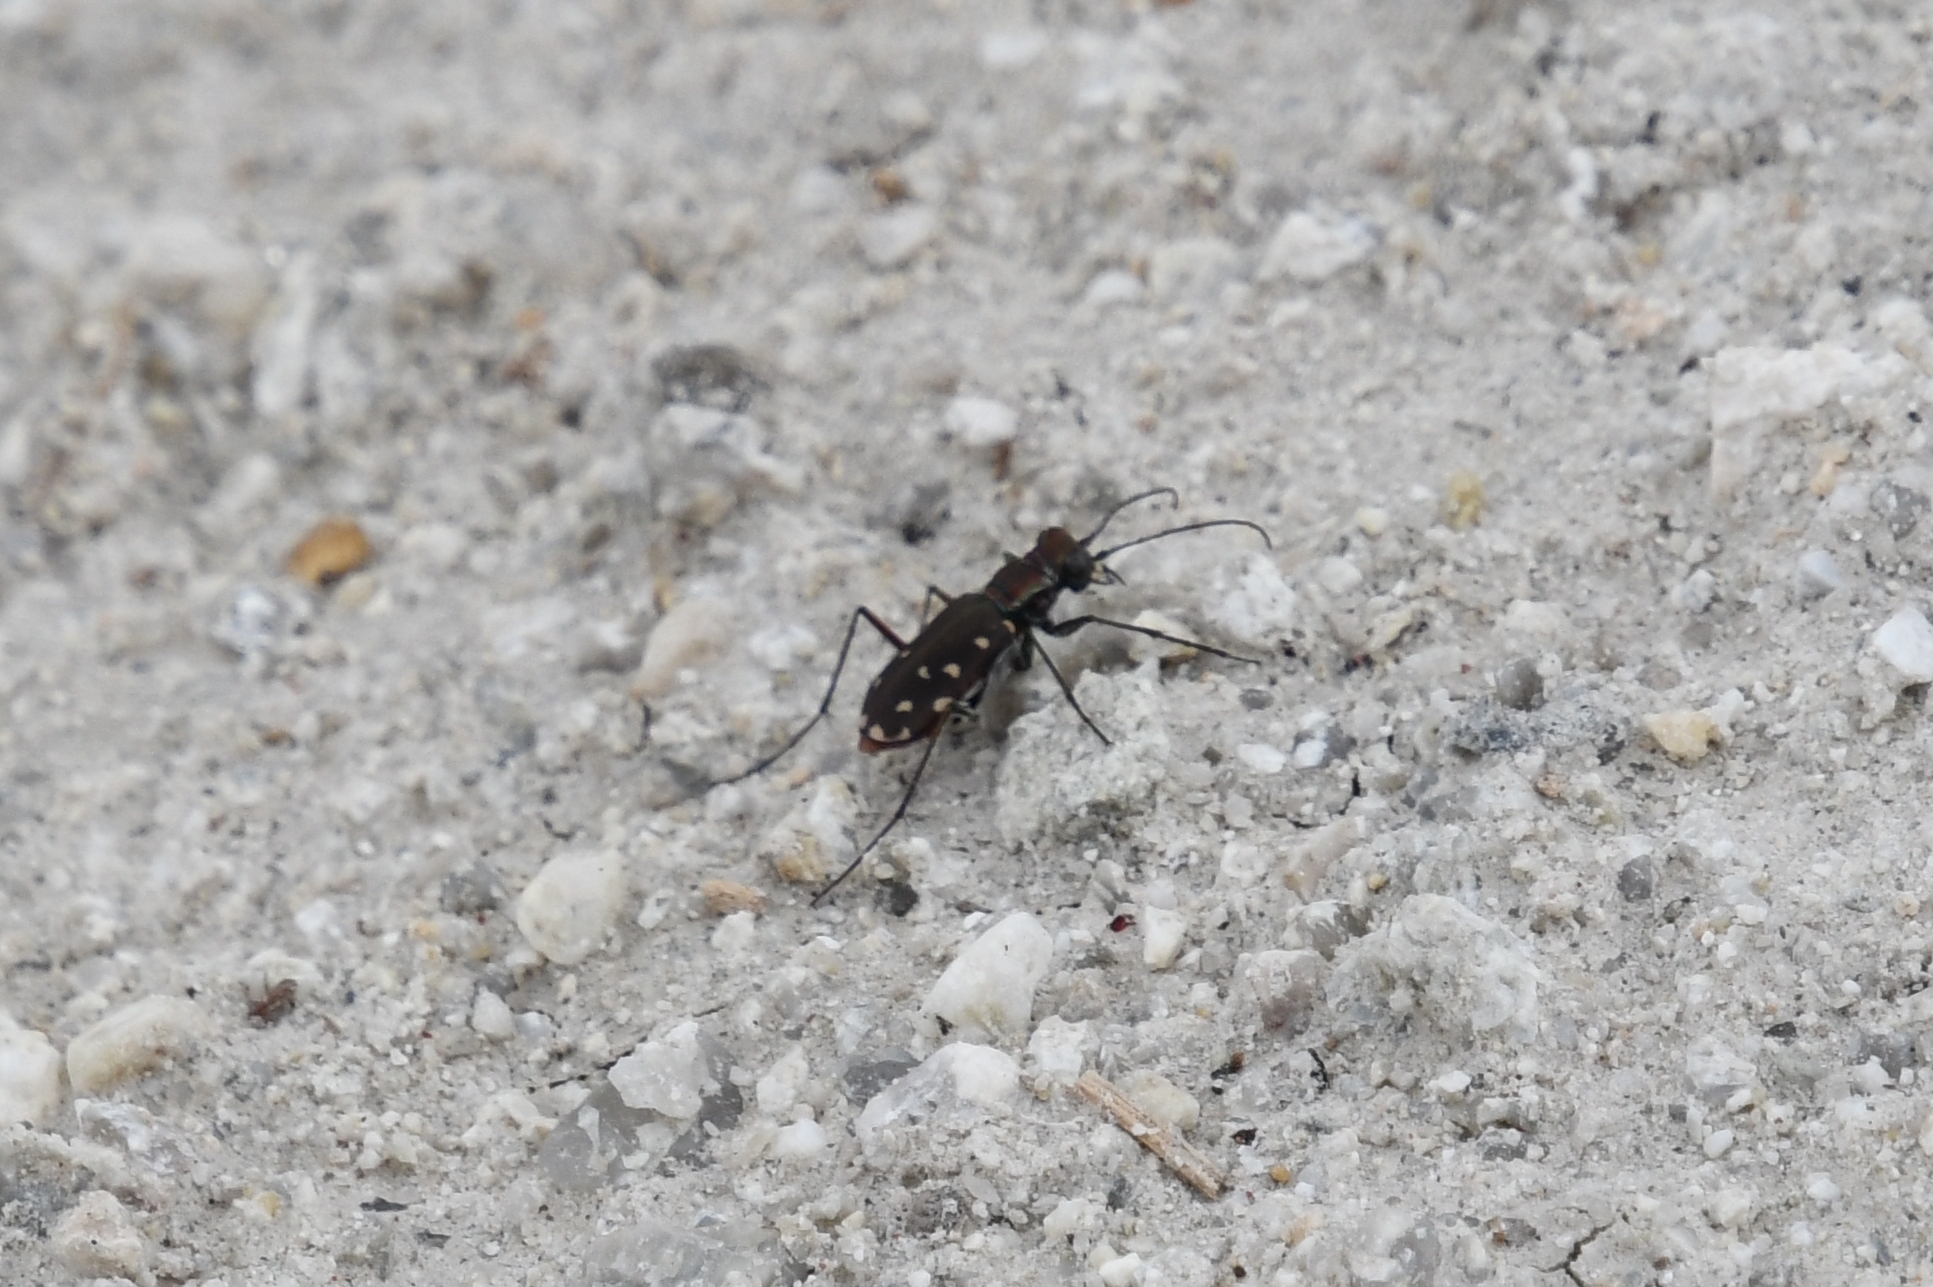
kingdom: Animalia
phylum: Arthropoda
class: Insecta
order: Coleoptera
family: Carabidae
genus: Cicindela
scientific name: Cicindela sedecimpunctata
